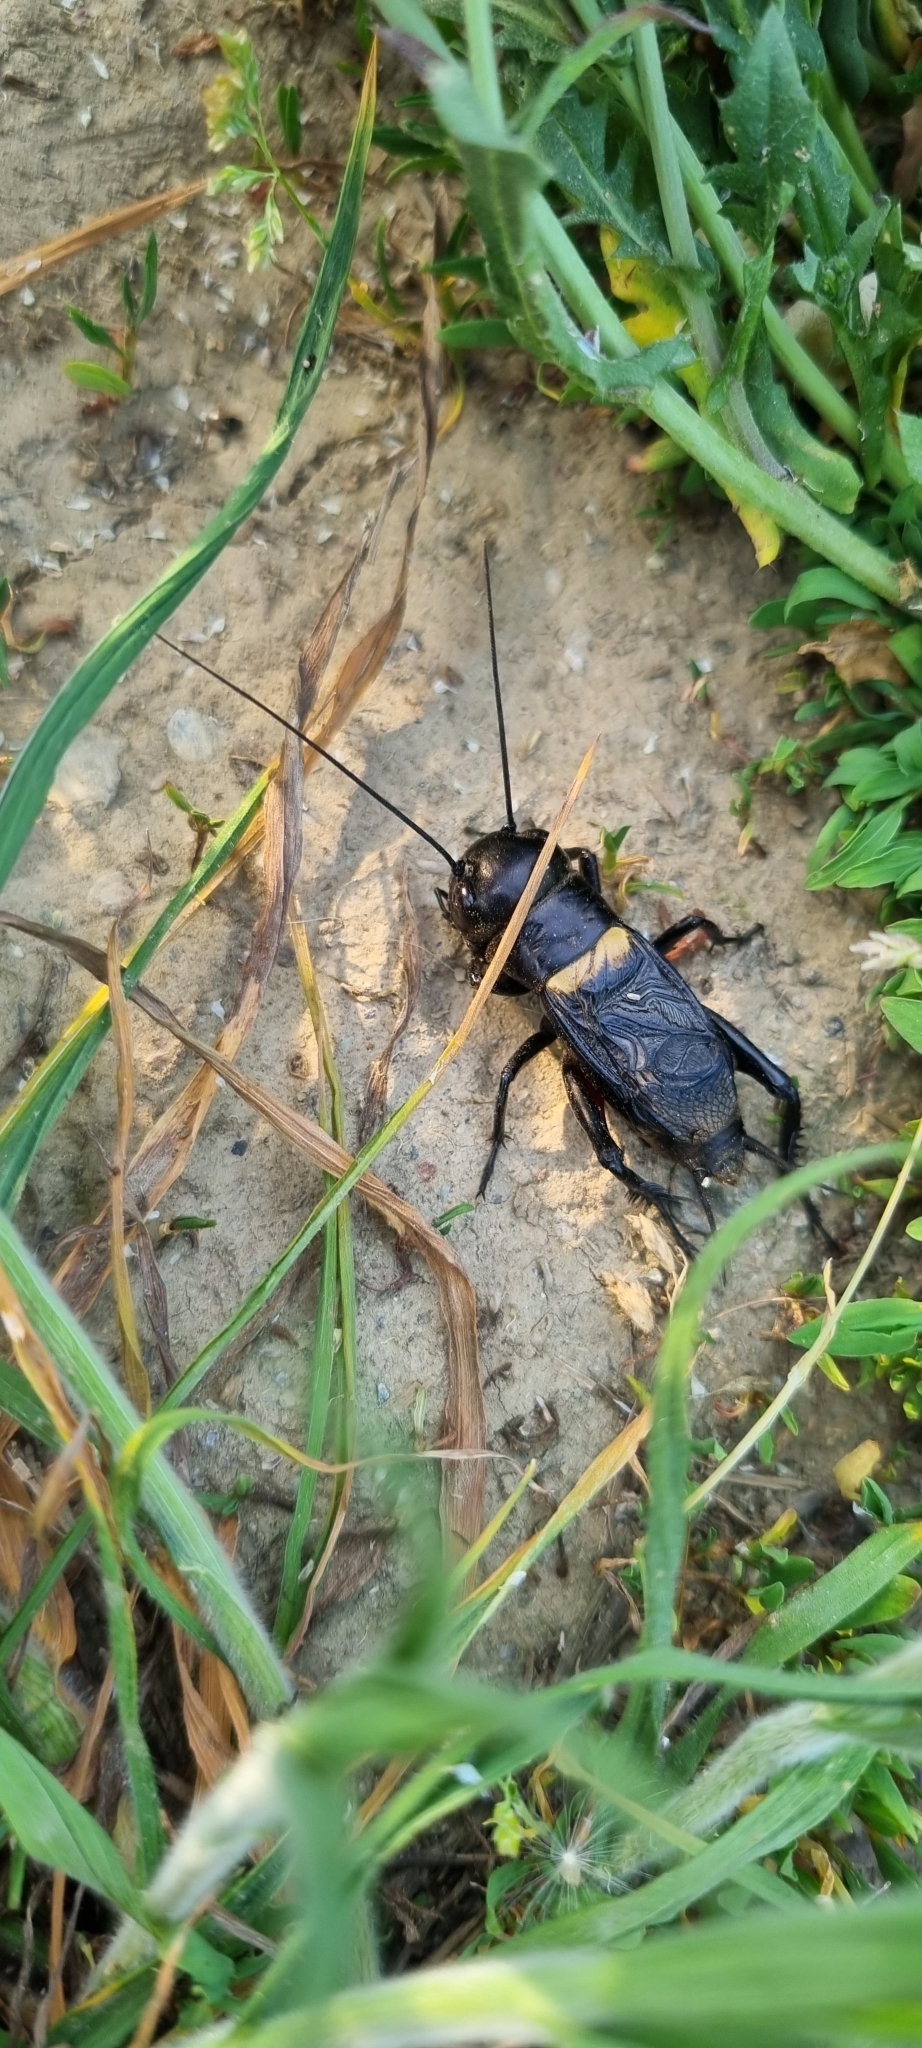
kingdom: Animalia
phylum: Arthropoda
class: Insecta
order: Orthoptera
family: Gryllidae
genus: Gryllus
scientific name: Gryllus campestris
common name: Field cricket
